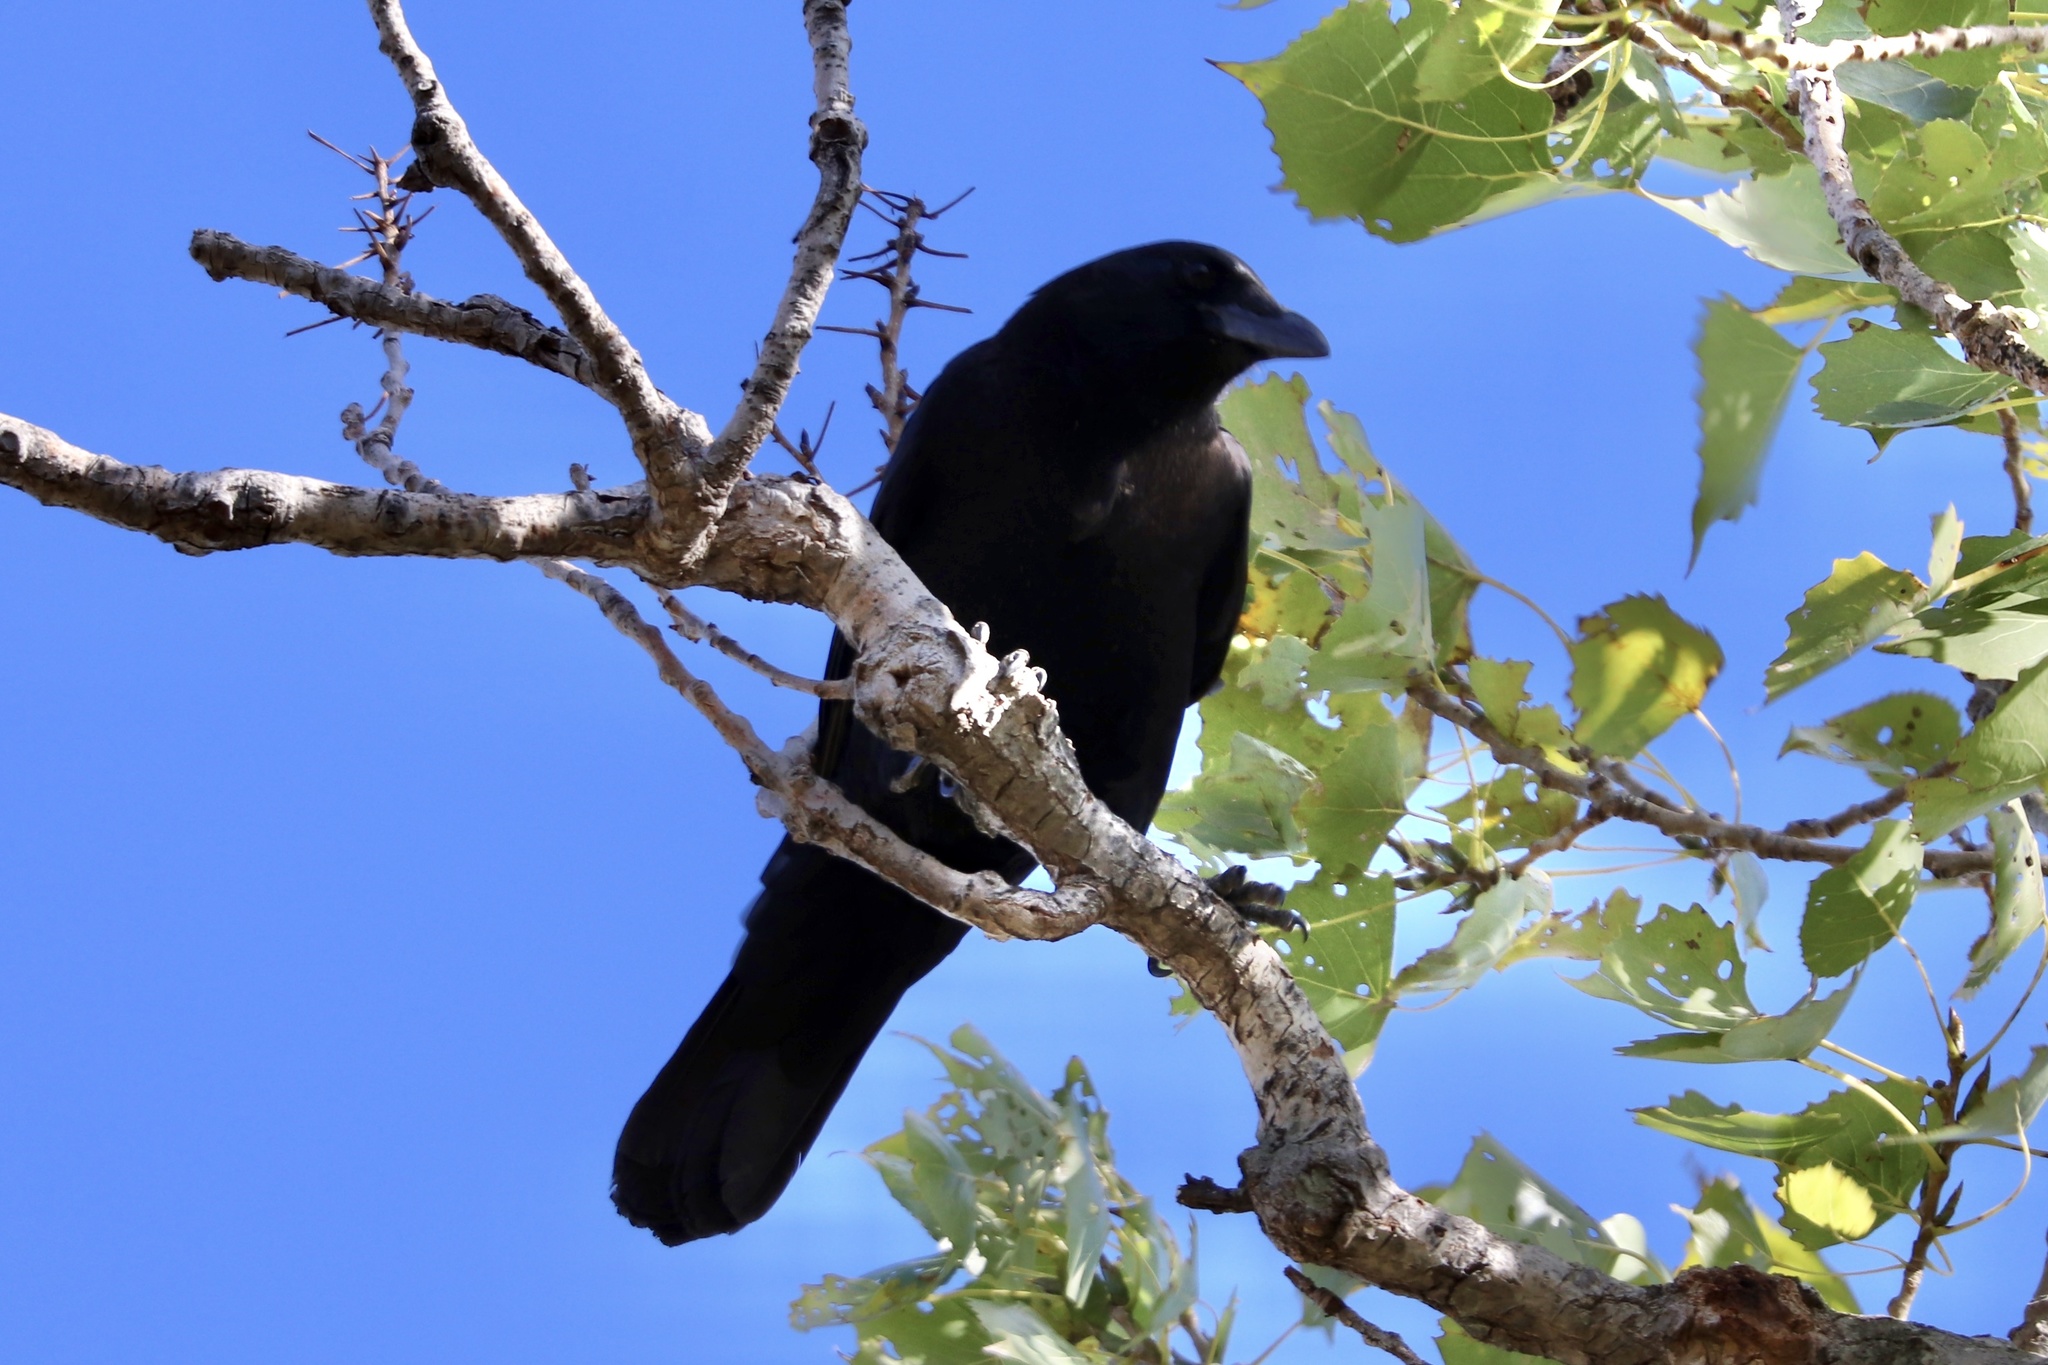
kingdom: Animalia
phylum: Chordata
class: Aves
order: Passeriformes
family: Corvidae
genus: Corvus
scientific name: Corvus brachyrhynchos
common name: American crow
